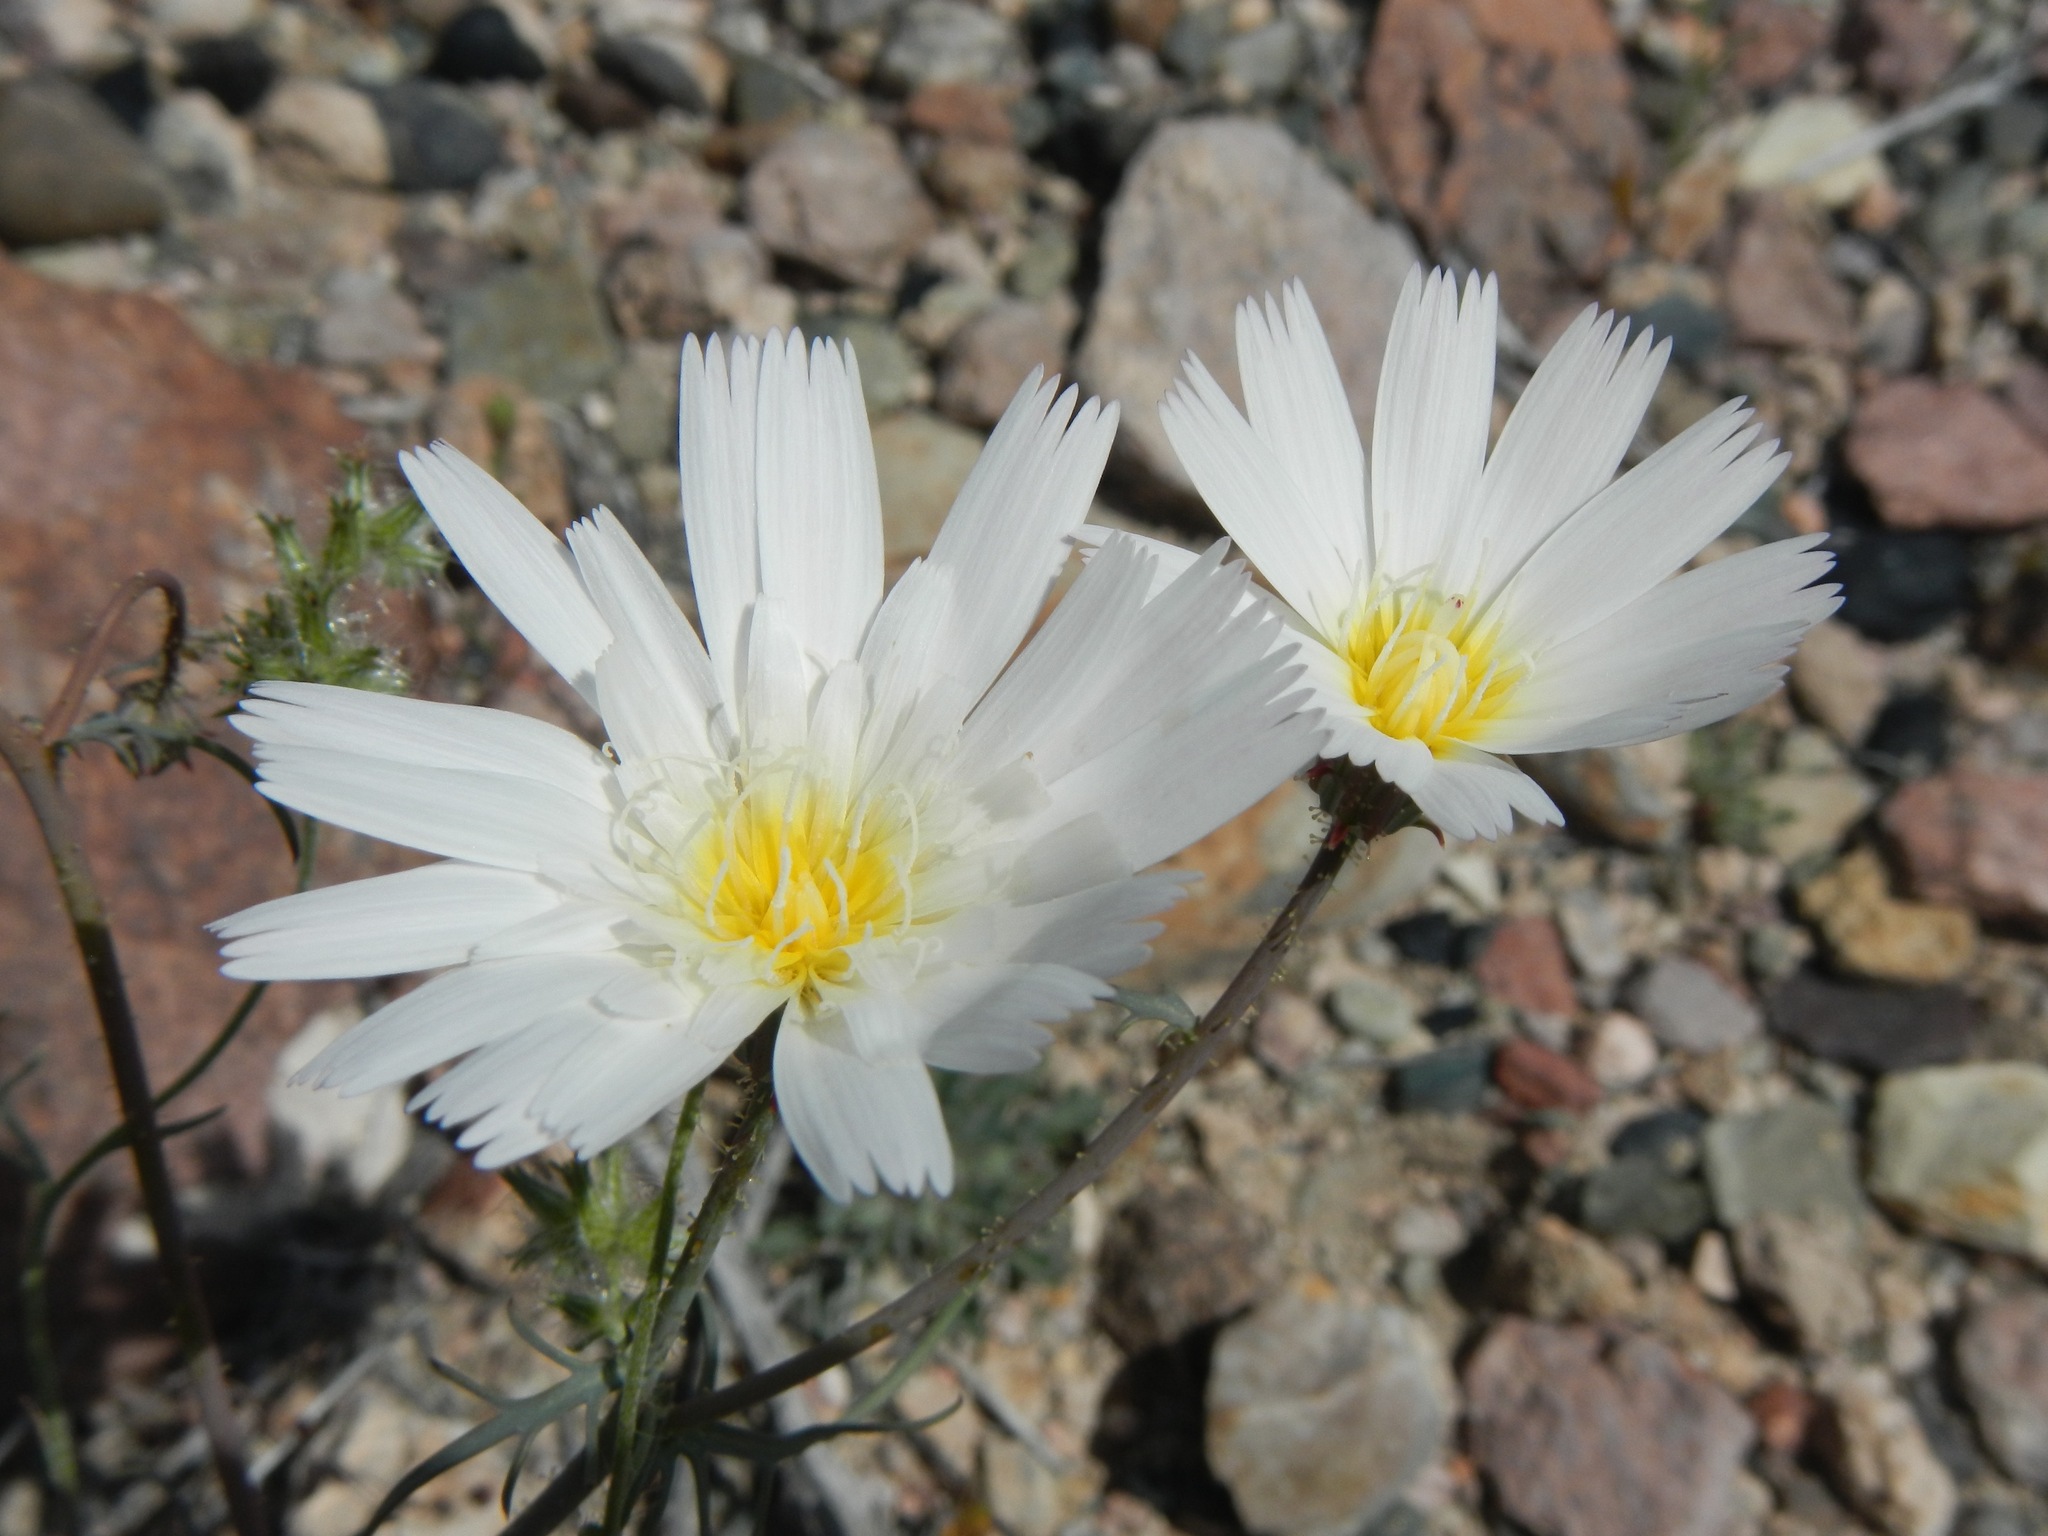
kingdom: Plantae
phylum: Tracheophyta
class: Magnoliopsida
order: Asterales
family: Asteraceae
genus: Calycoseris
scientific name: Calycoseris wrightii
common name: White tackstem
